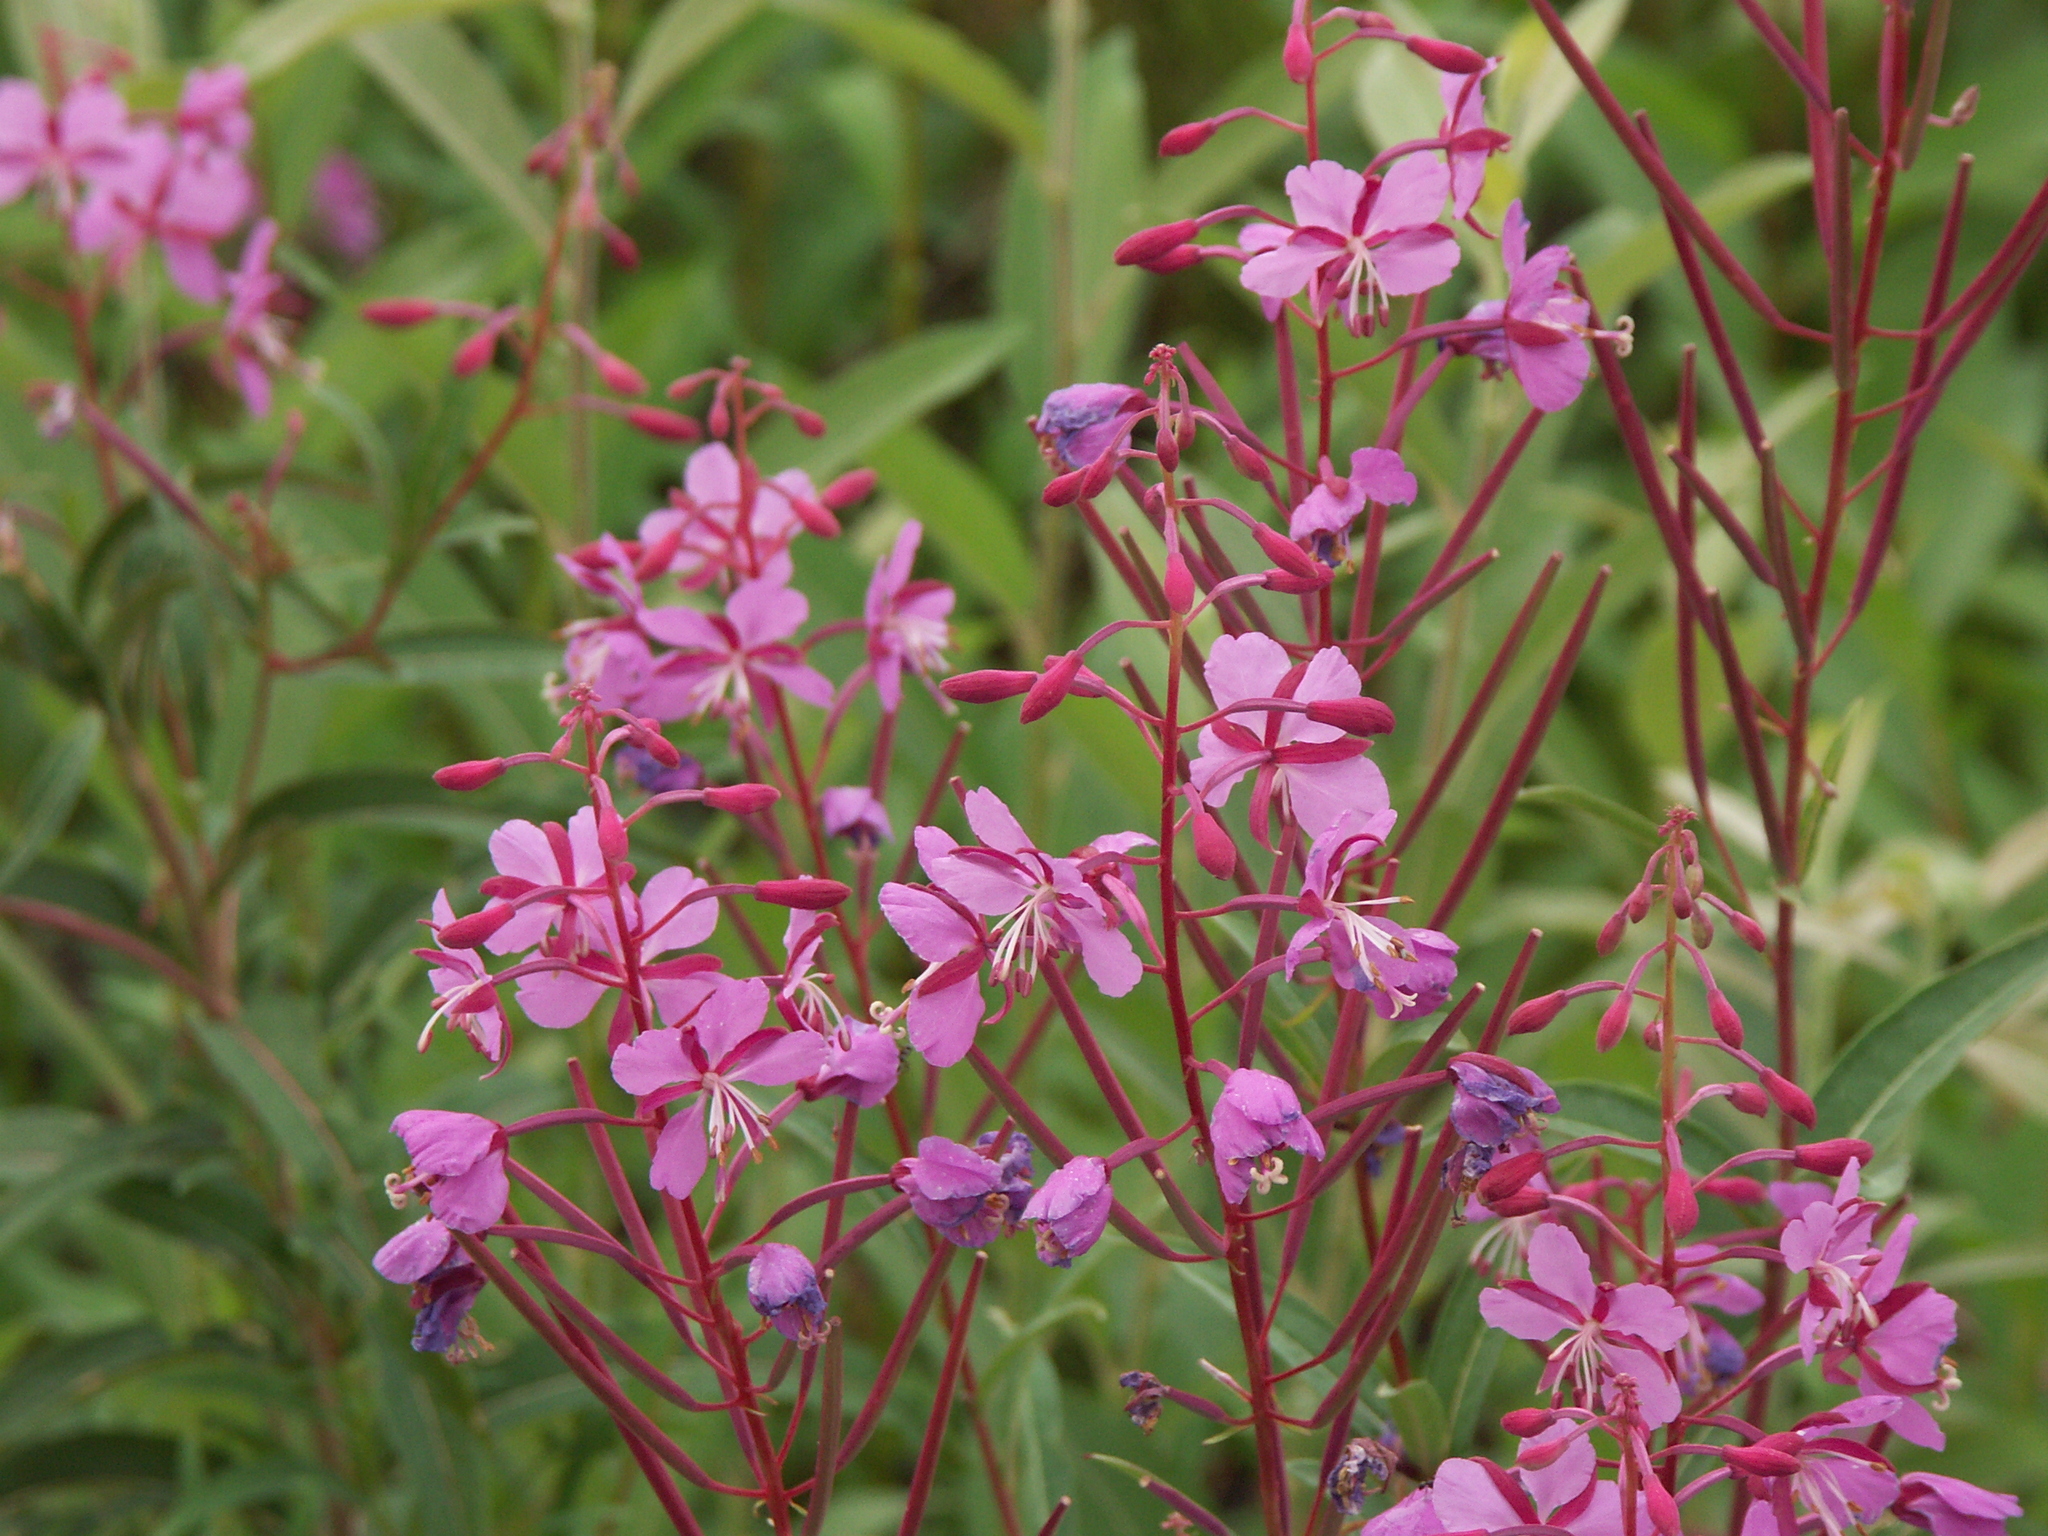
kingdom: Plantae
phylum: Tracheophyta
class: Magnoliopsida
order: Myrtales
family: Onagraceae
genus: Chamaenerion
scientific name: Chamaenerion angustifolium
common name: Fireweed
